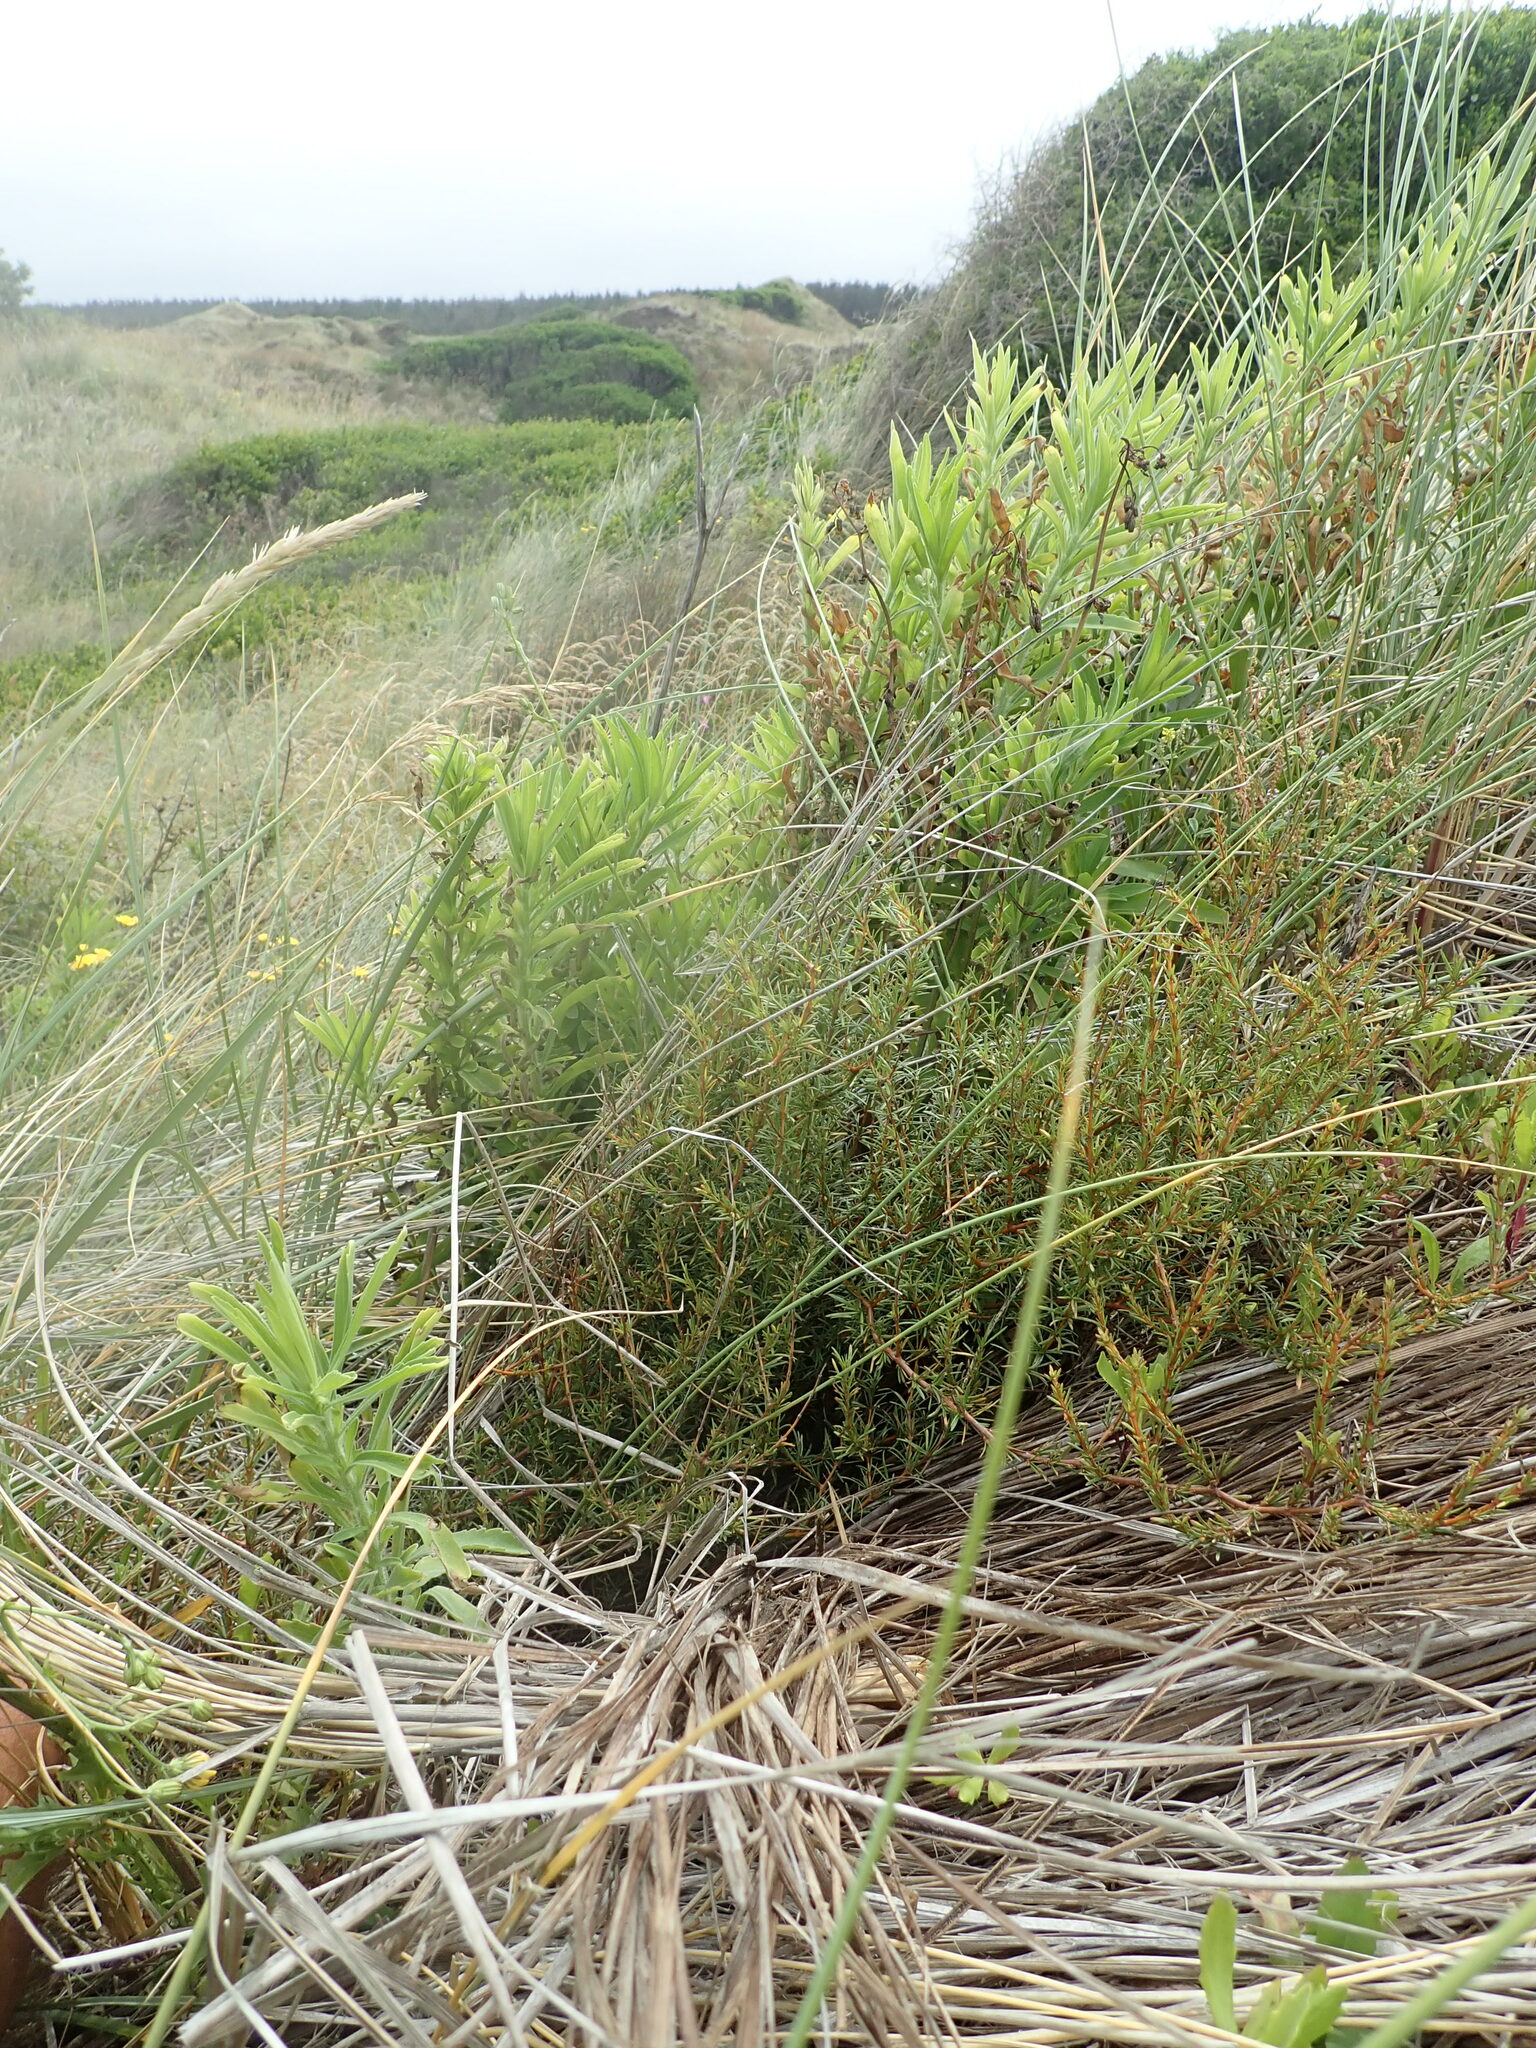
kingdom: Plantae
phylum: Tracheophyta
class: Magnoliopsida
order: Gentianales
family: Rubiaceae
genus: Coprosma
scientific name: Coprosma acerosa
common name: Sand coprosma
